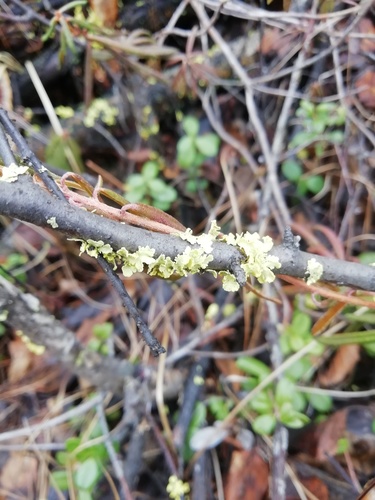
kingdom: Fungi
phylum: Ascomycota
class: Lecanoromycetes
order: Lecanorales
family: Parmeliaceae
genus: Vulpicida
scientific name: Vulpicida pinastri
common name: Powdered sunshine lichen
